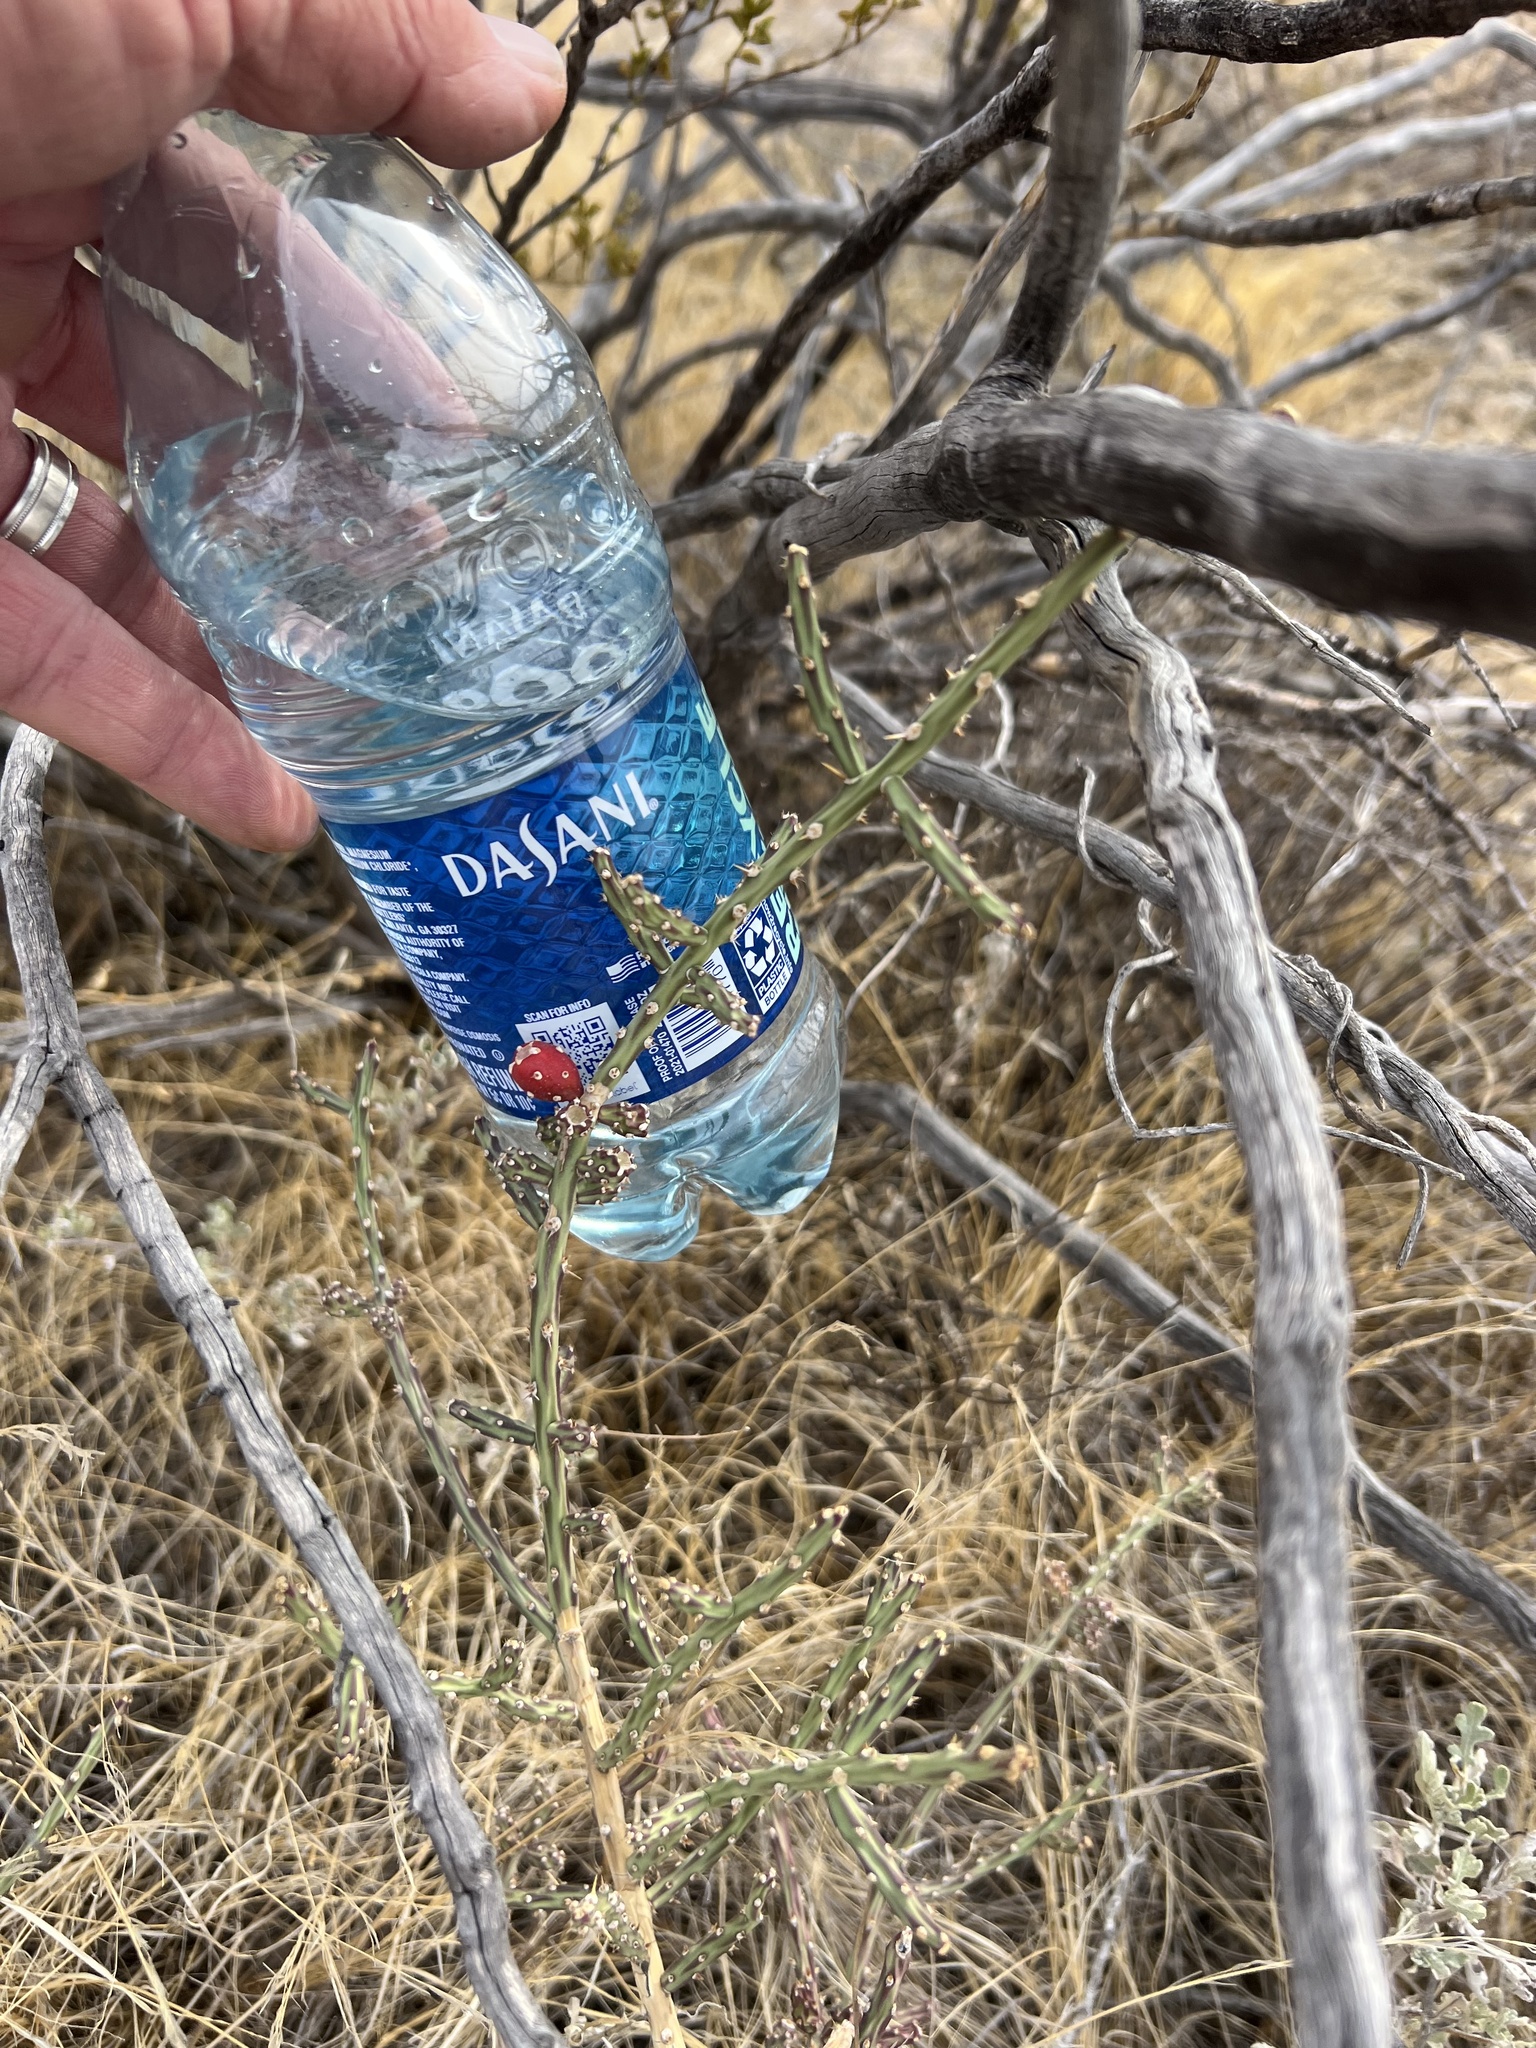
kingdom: Plantae
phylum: Tracheophyta
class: Magnoliopsida
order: Caryophyllales
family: Cactaceae
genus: Cylindropuntia
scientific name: Cylindropuntia leptocaulis
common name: Christmas cactus
